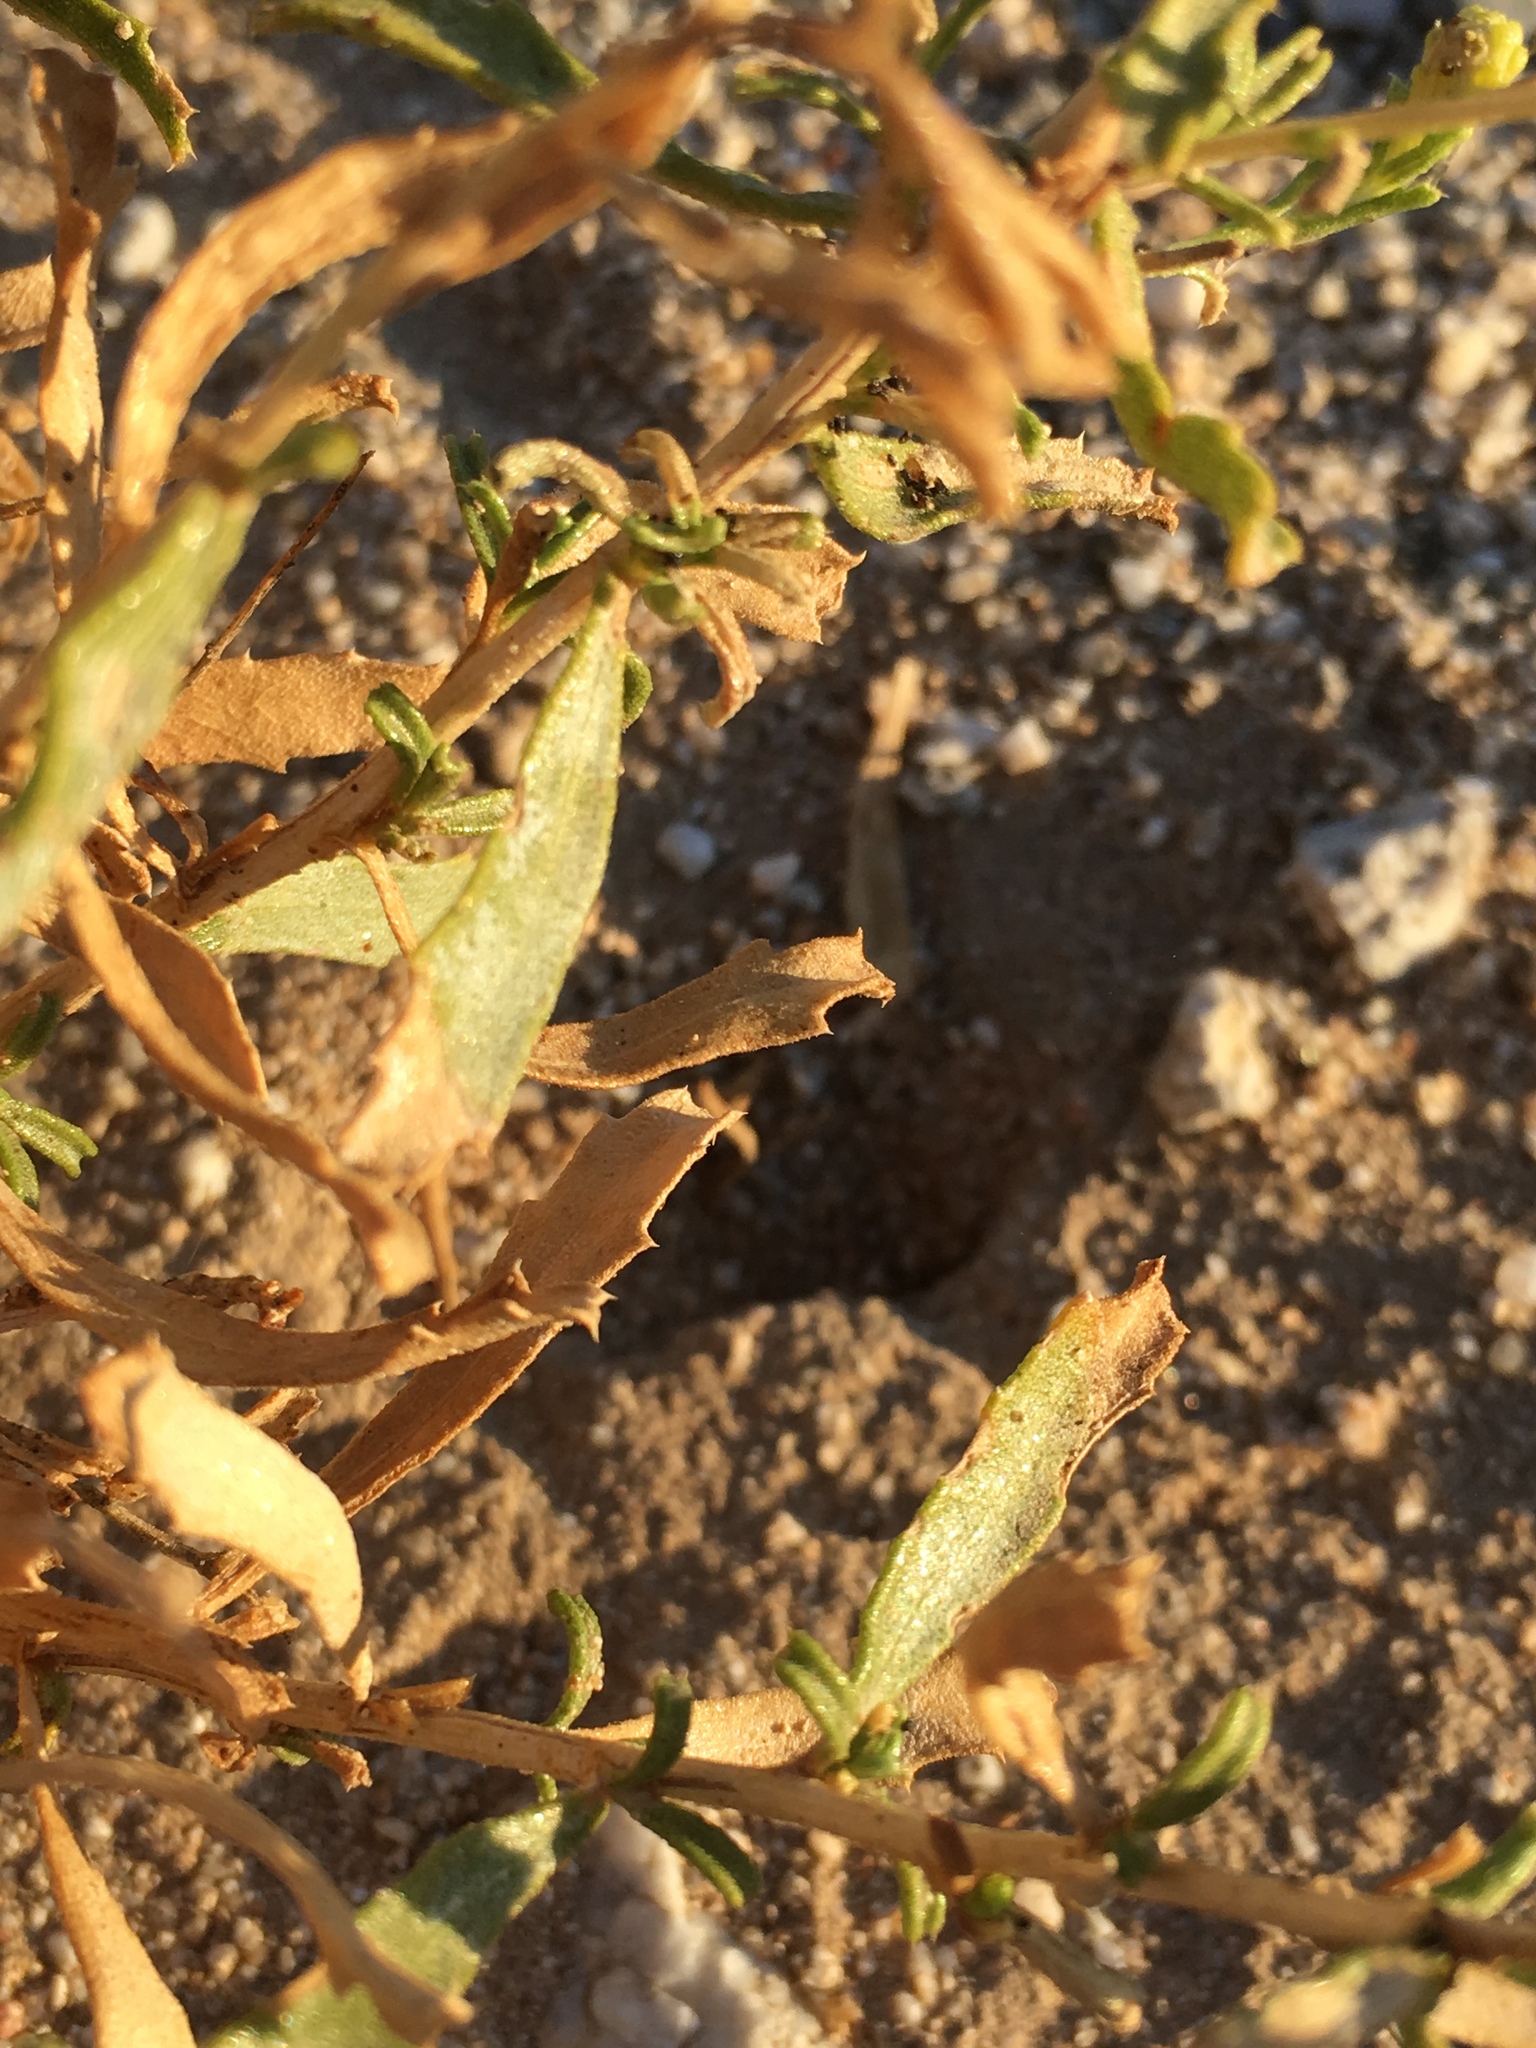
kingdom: Plantae
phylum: Tracheophyta
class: Magnoliopsida
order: Asterales
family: Asteraceae
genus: Isocoma
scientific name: Isocoma acradenia
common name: Alkali jimmyweed
